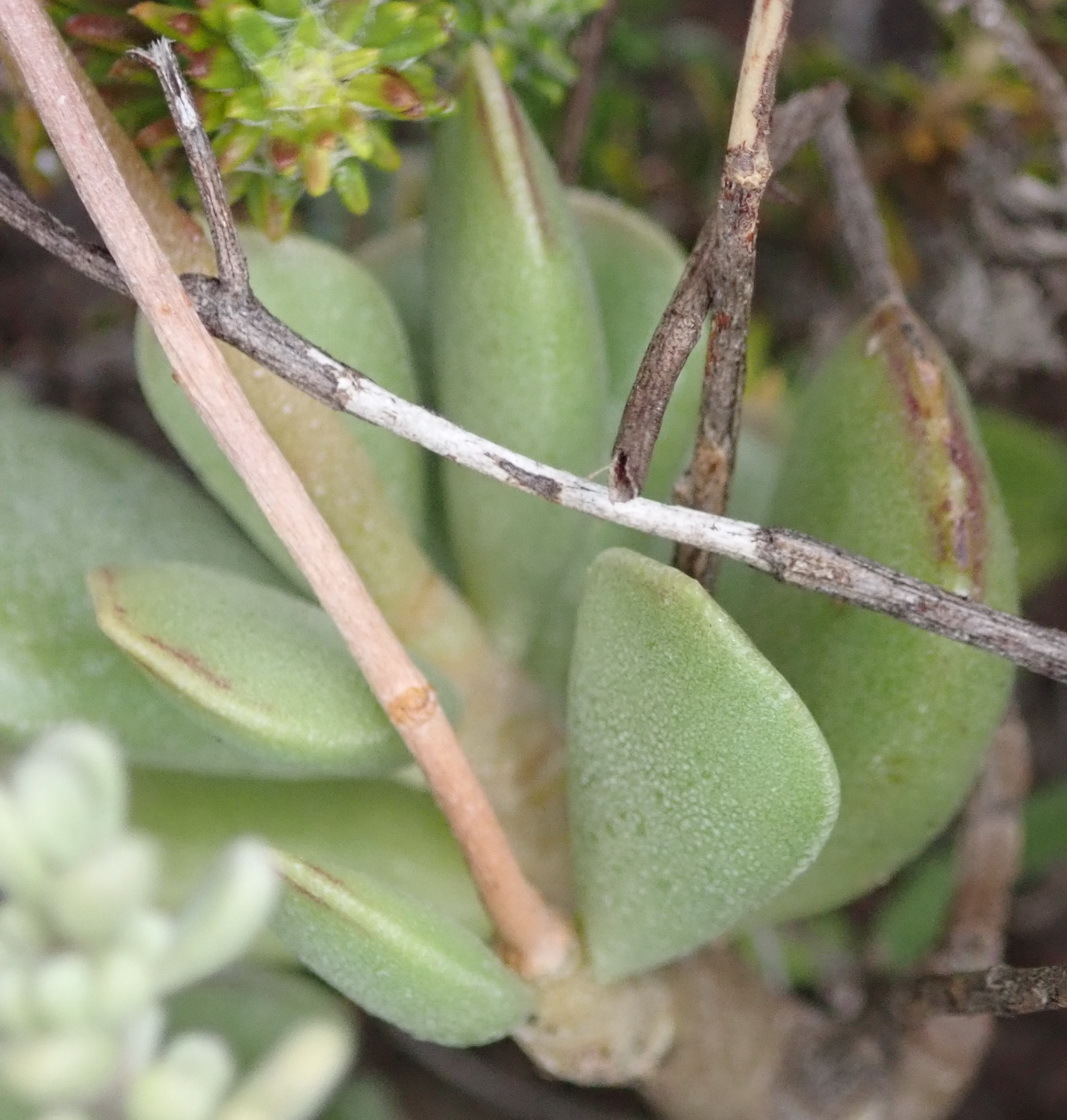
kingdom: Plantae
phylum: Tracheophyta
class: Magnoliopsida
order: Saxifragales
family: Crassulaceae
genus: Adromischus
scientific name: Adromischus caryophyllaceus
